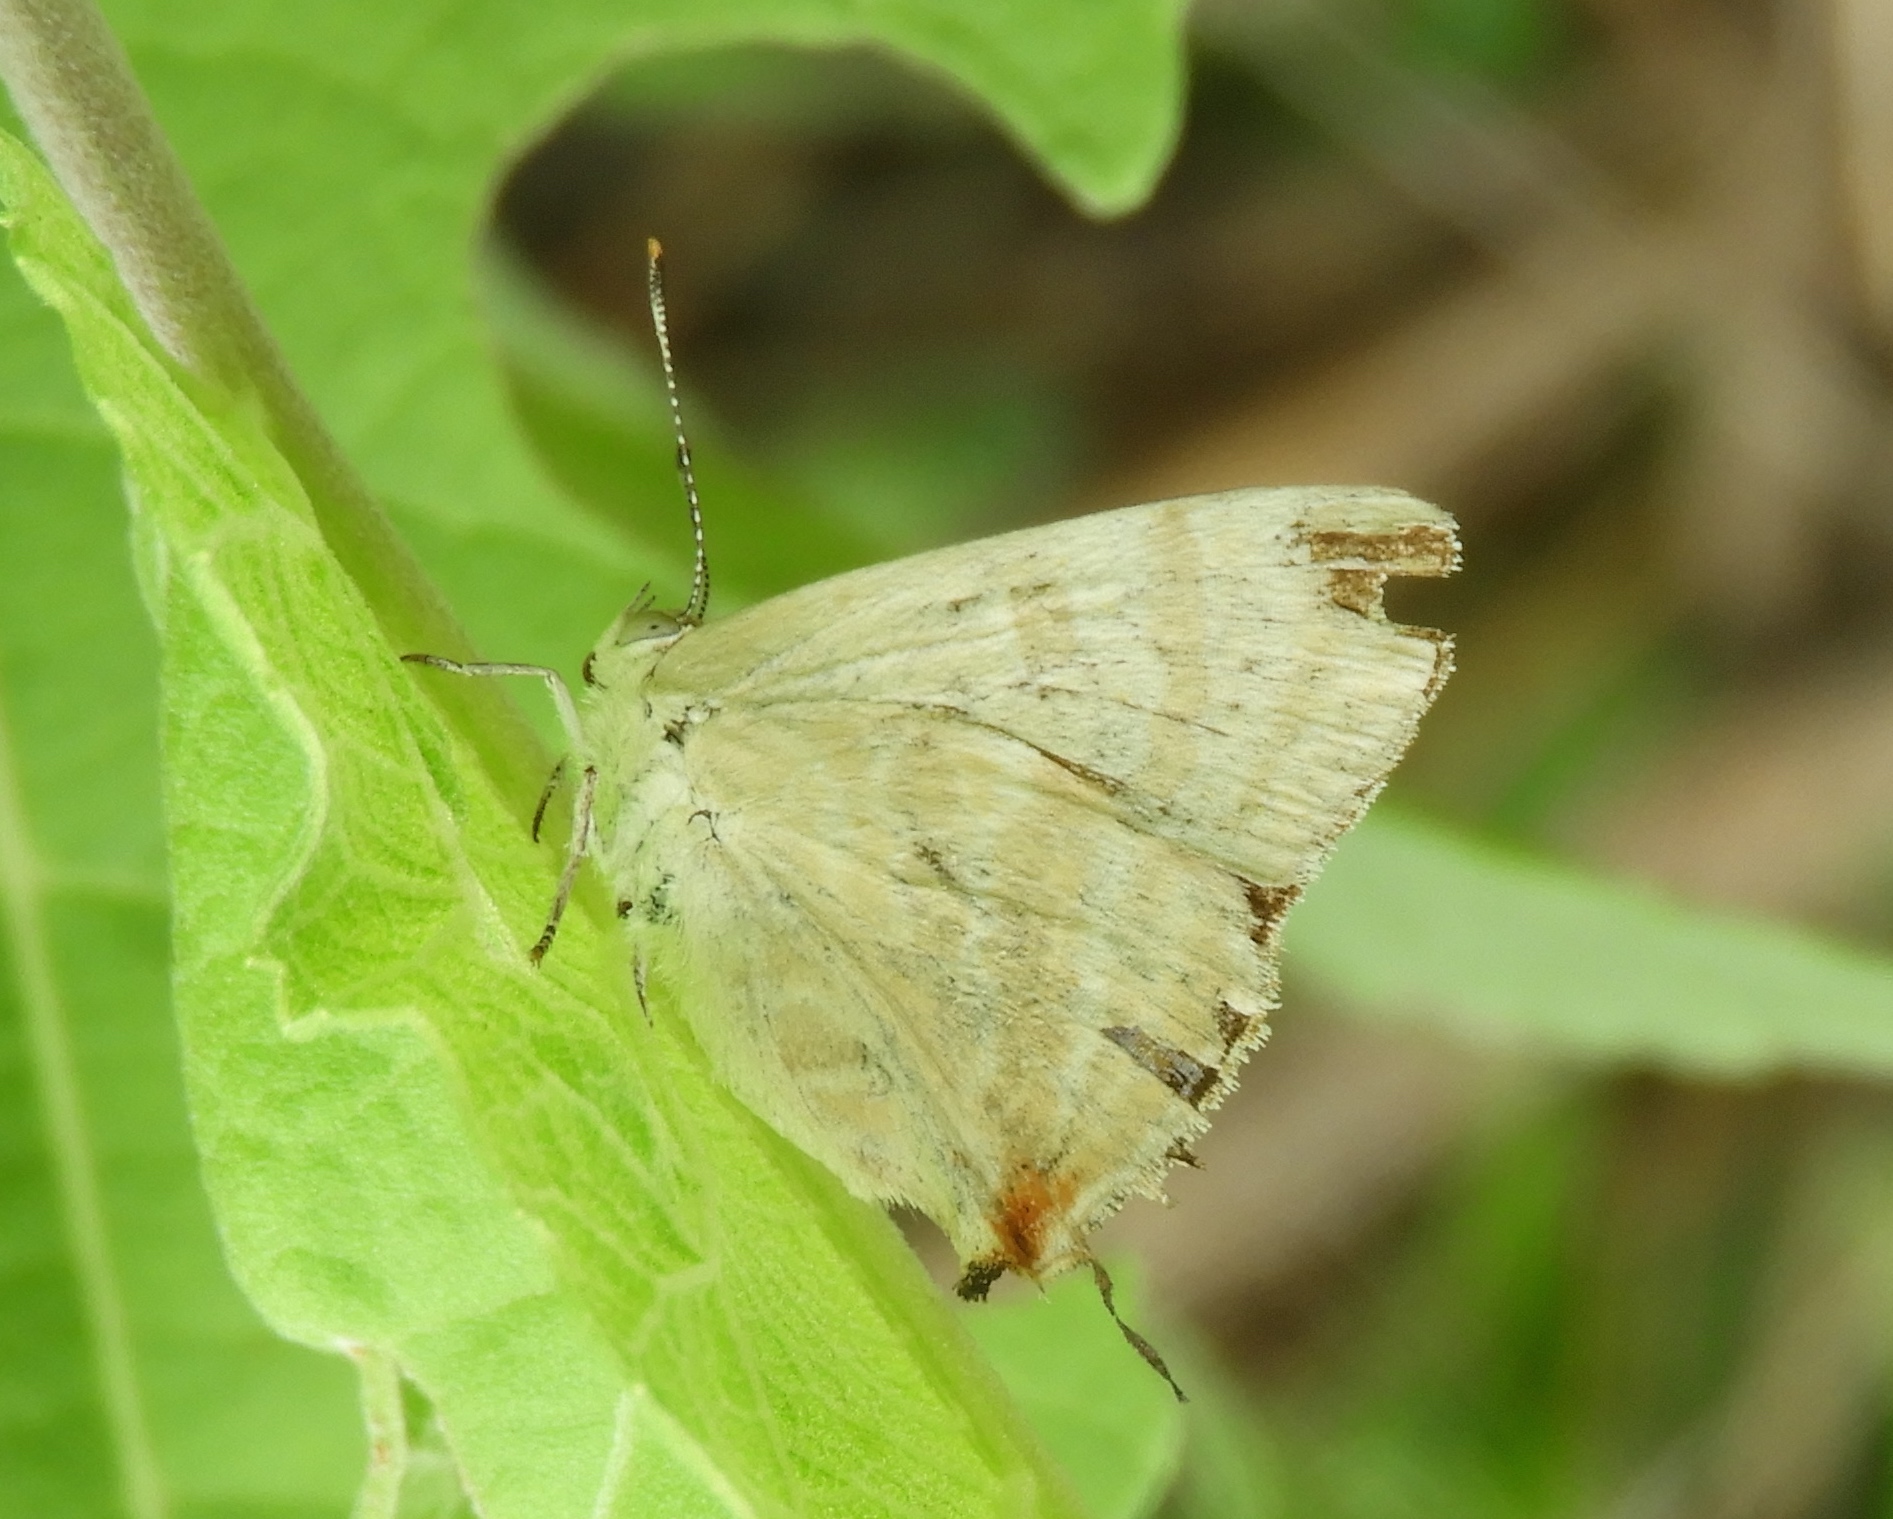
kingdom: Animalia
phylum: Arthropoda
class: Insecta
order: Lepidoptera
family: Lycaenidae
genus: Dolymorpha
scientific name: Dolymorpha jada
